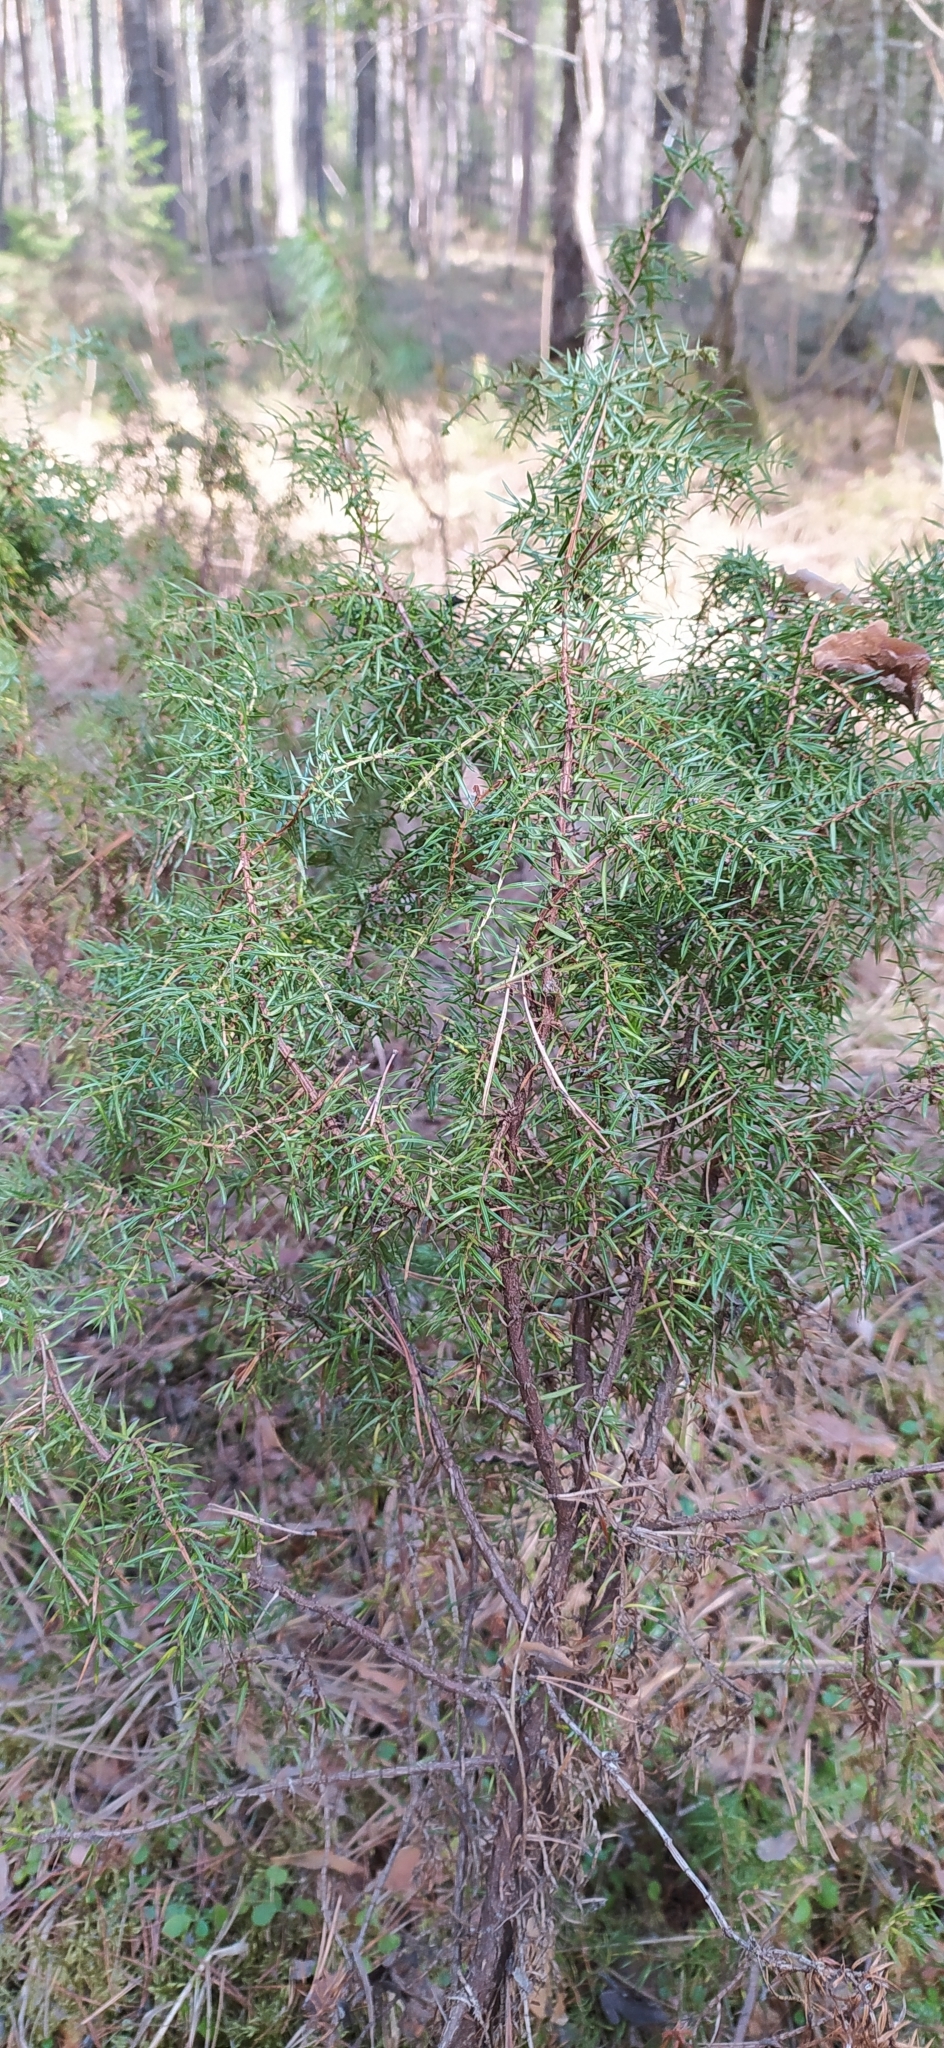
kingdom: Plantae
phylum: Tracheophyta
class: Pinopsida
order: Pinales
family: Cupressaceae
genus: Juniperus
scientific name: Juniperus communis
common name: Common juniper
